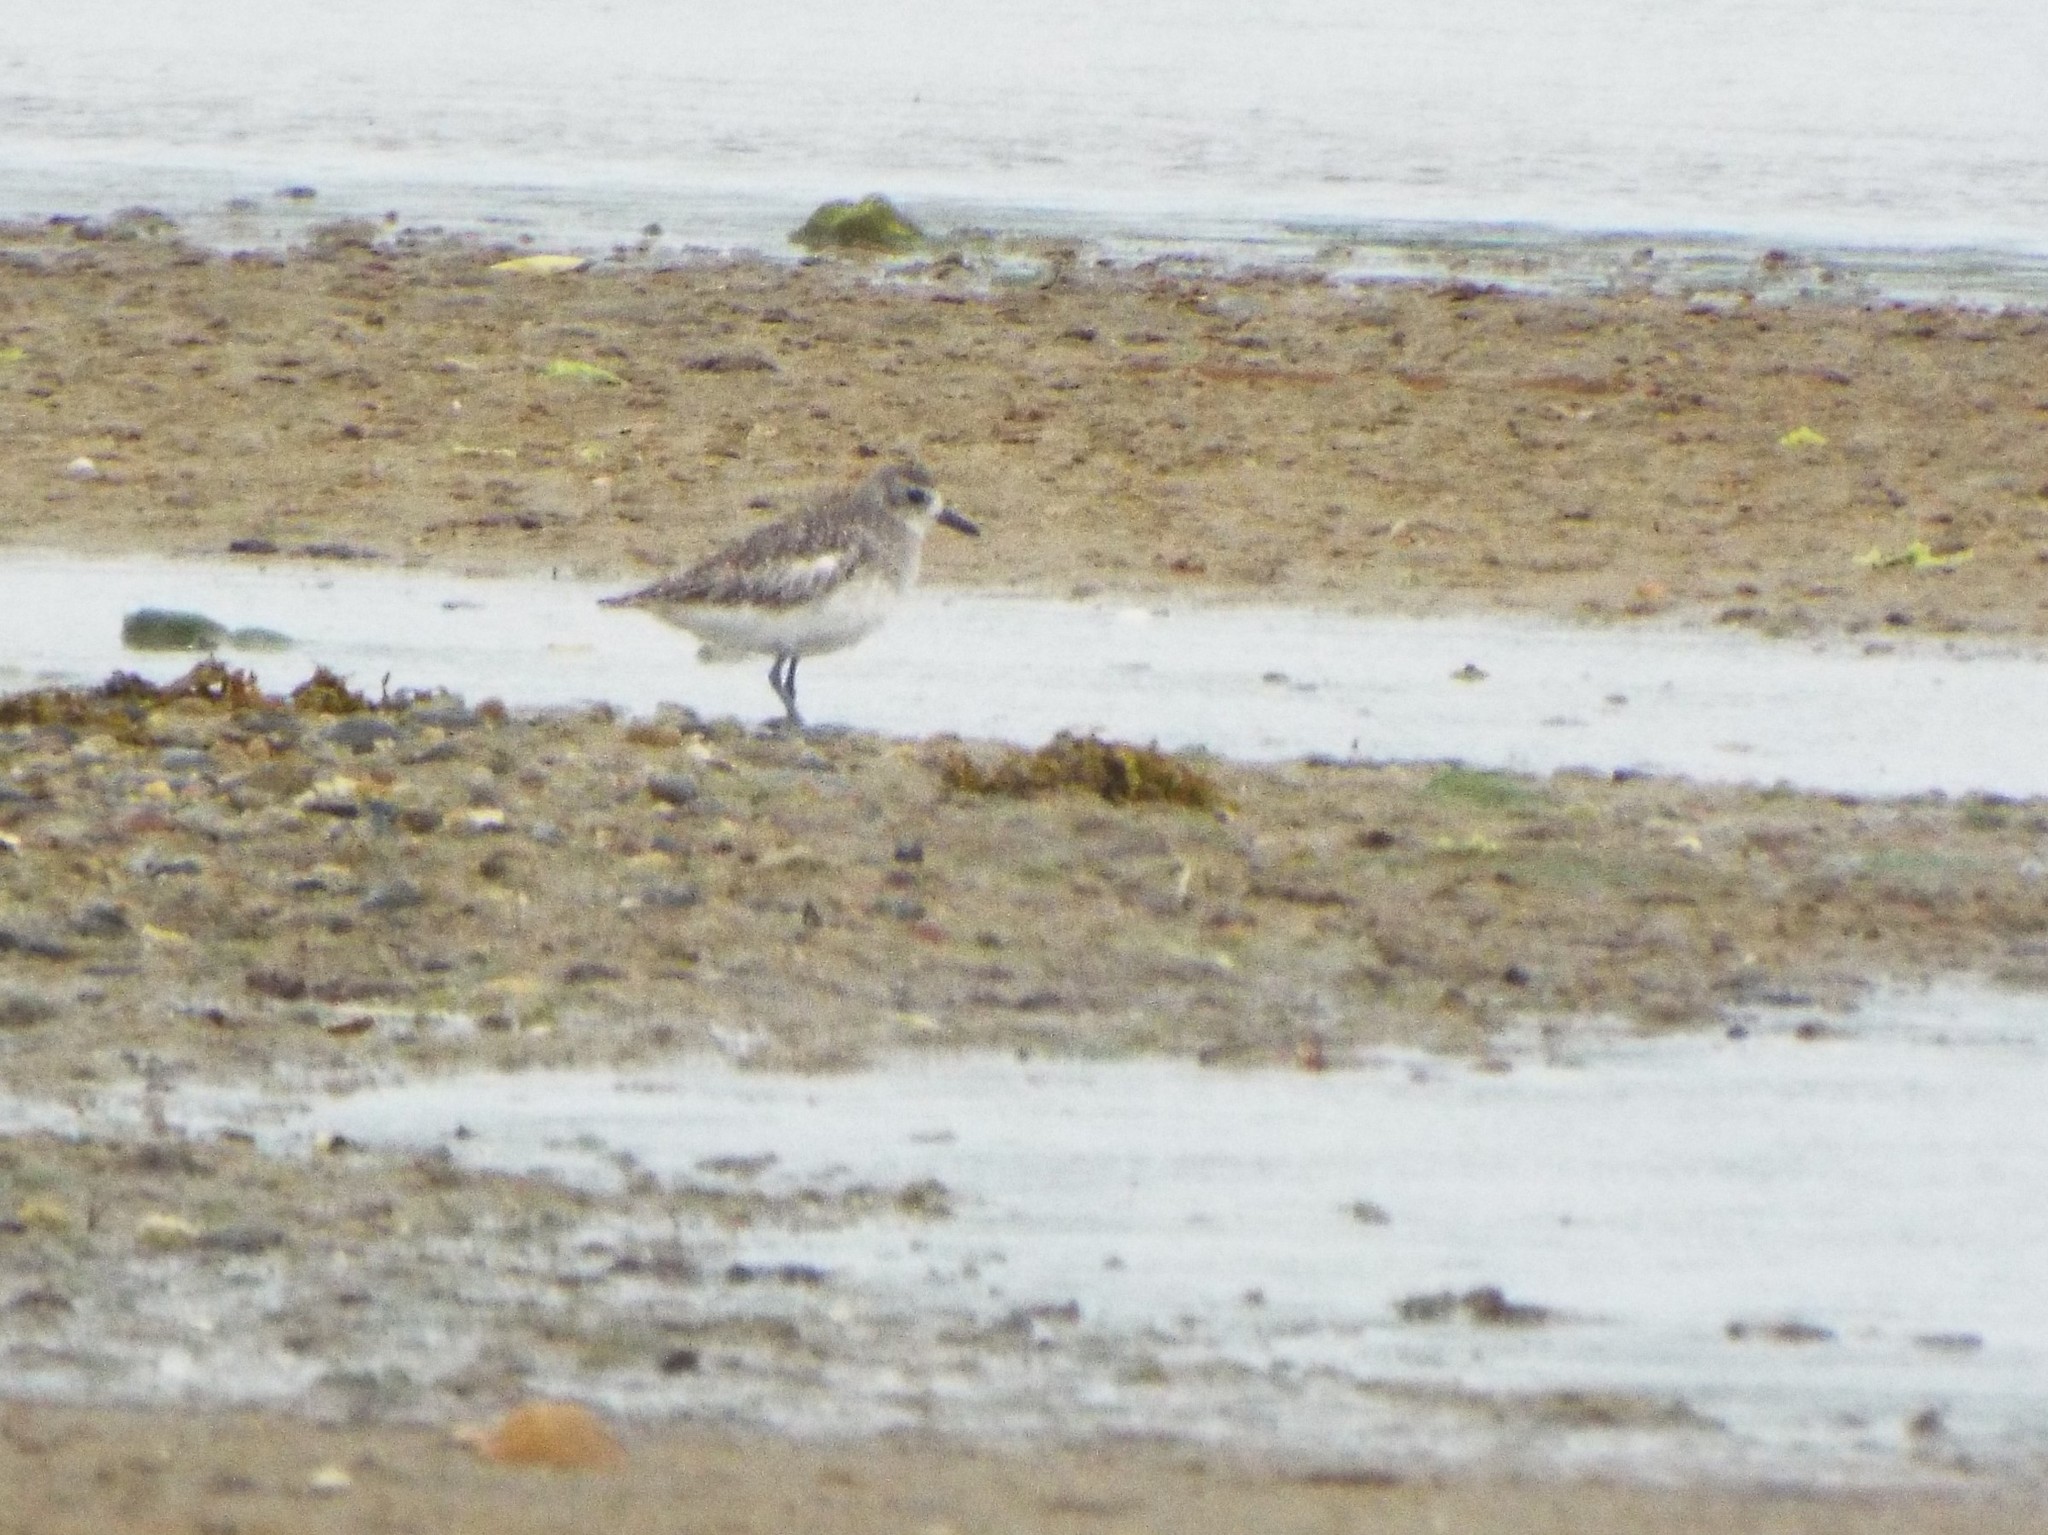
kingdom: Animalia
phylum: Chordata
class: Aves
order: Charadriiformes
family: Charadriidae
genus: Pluvialis
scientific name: Pluvialis squatarola
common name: Grey plover
